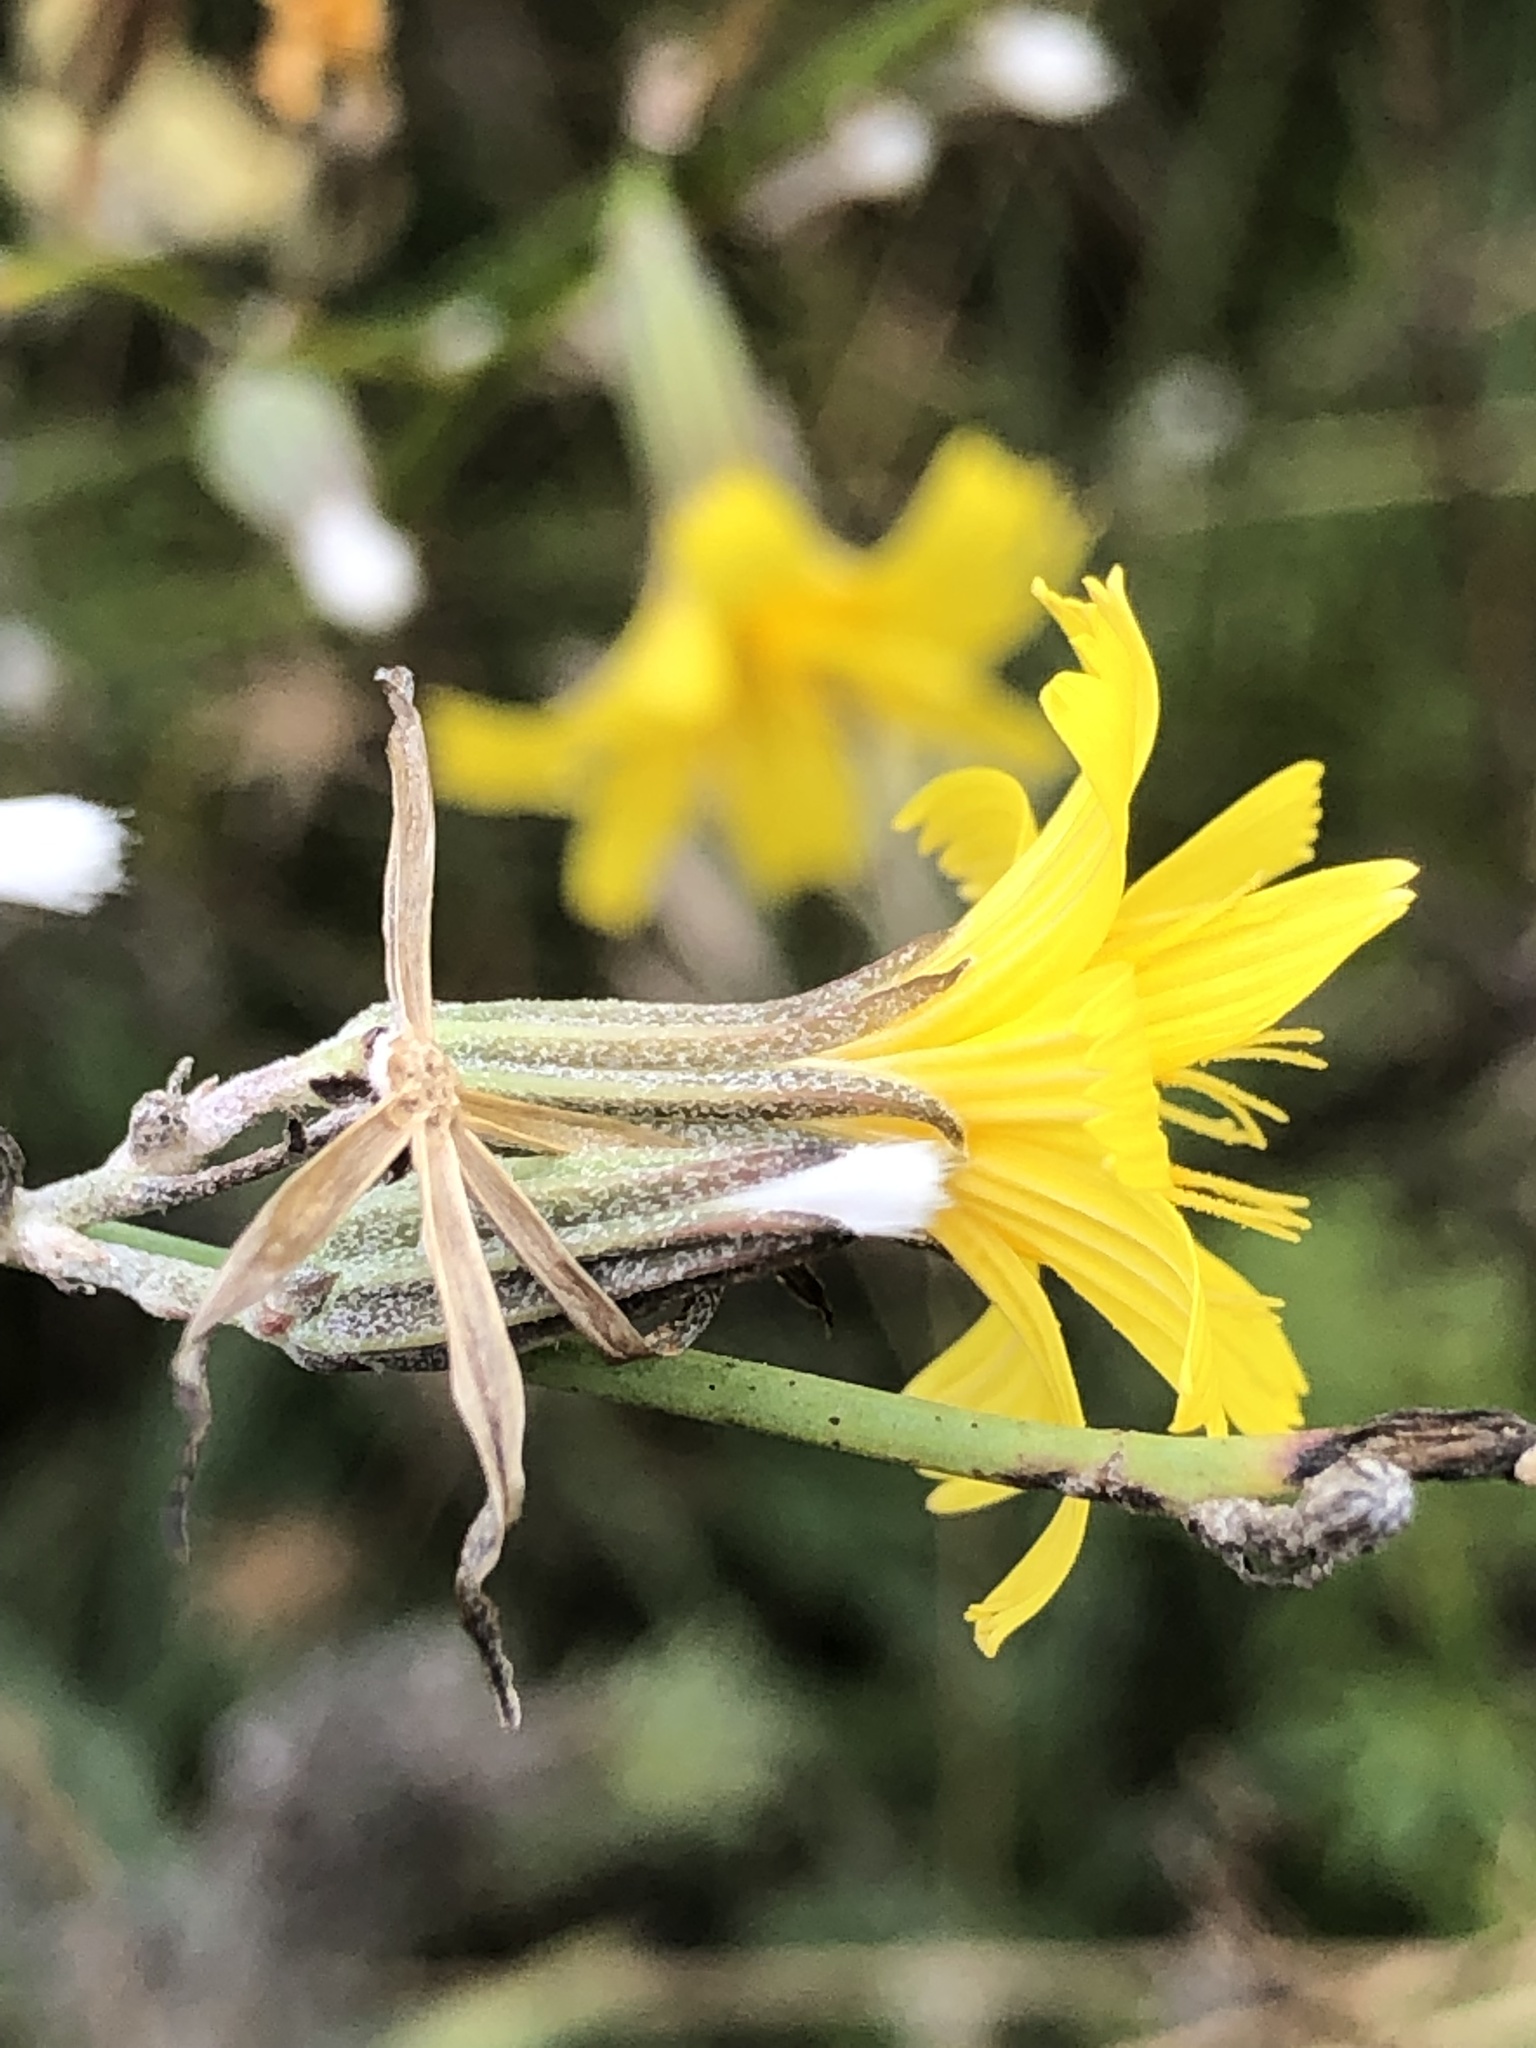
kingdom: Plantae
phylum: Tracheophyta
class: Magnoliopsida
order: Asterales
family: Asteraceae
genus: Chondrilla
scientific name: Chondrilla juncea
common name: Skeleton weed
